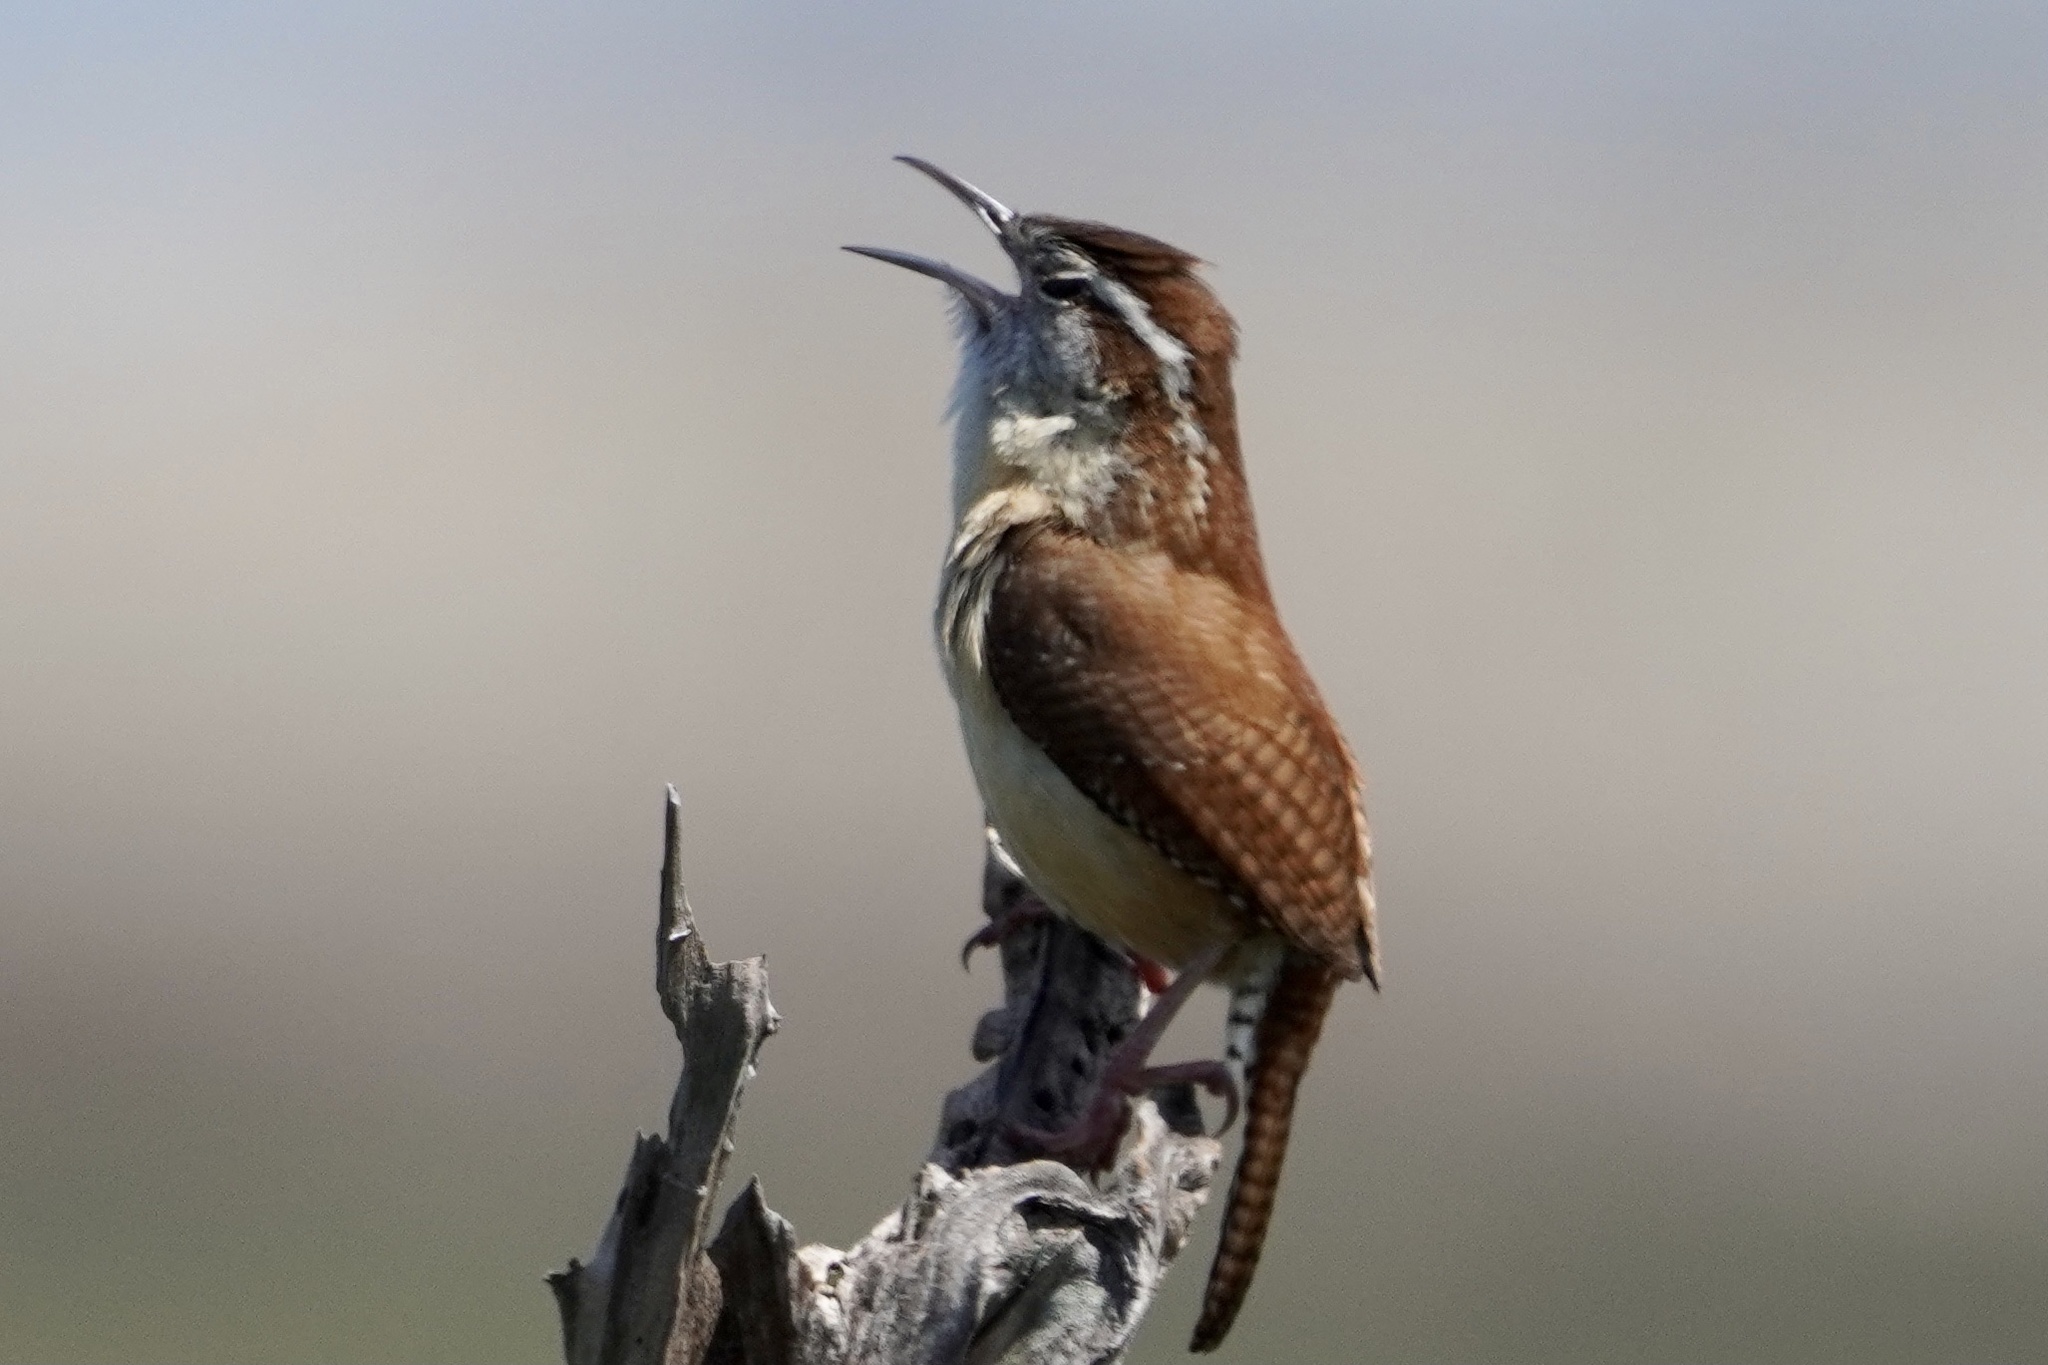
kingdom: Animalia
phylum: Chordata
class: Aves
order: Passeriformes
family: Troglodytidae
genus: Thryothorus
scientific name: Thryothorus ludovicianus
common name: Carolina wren
